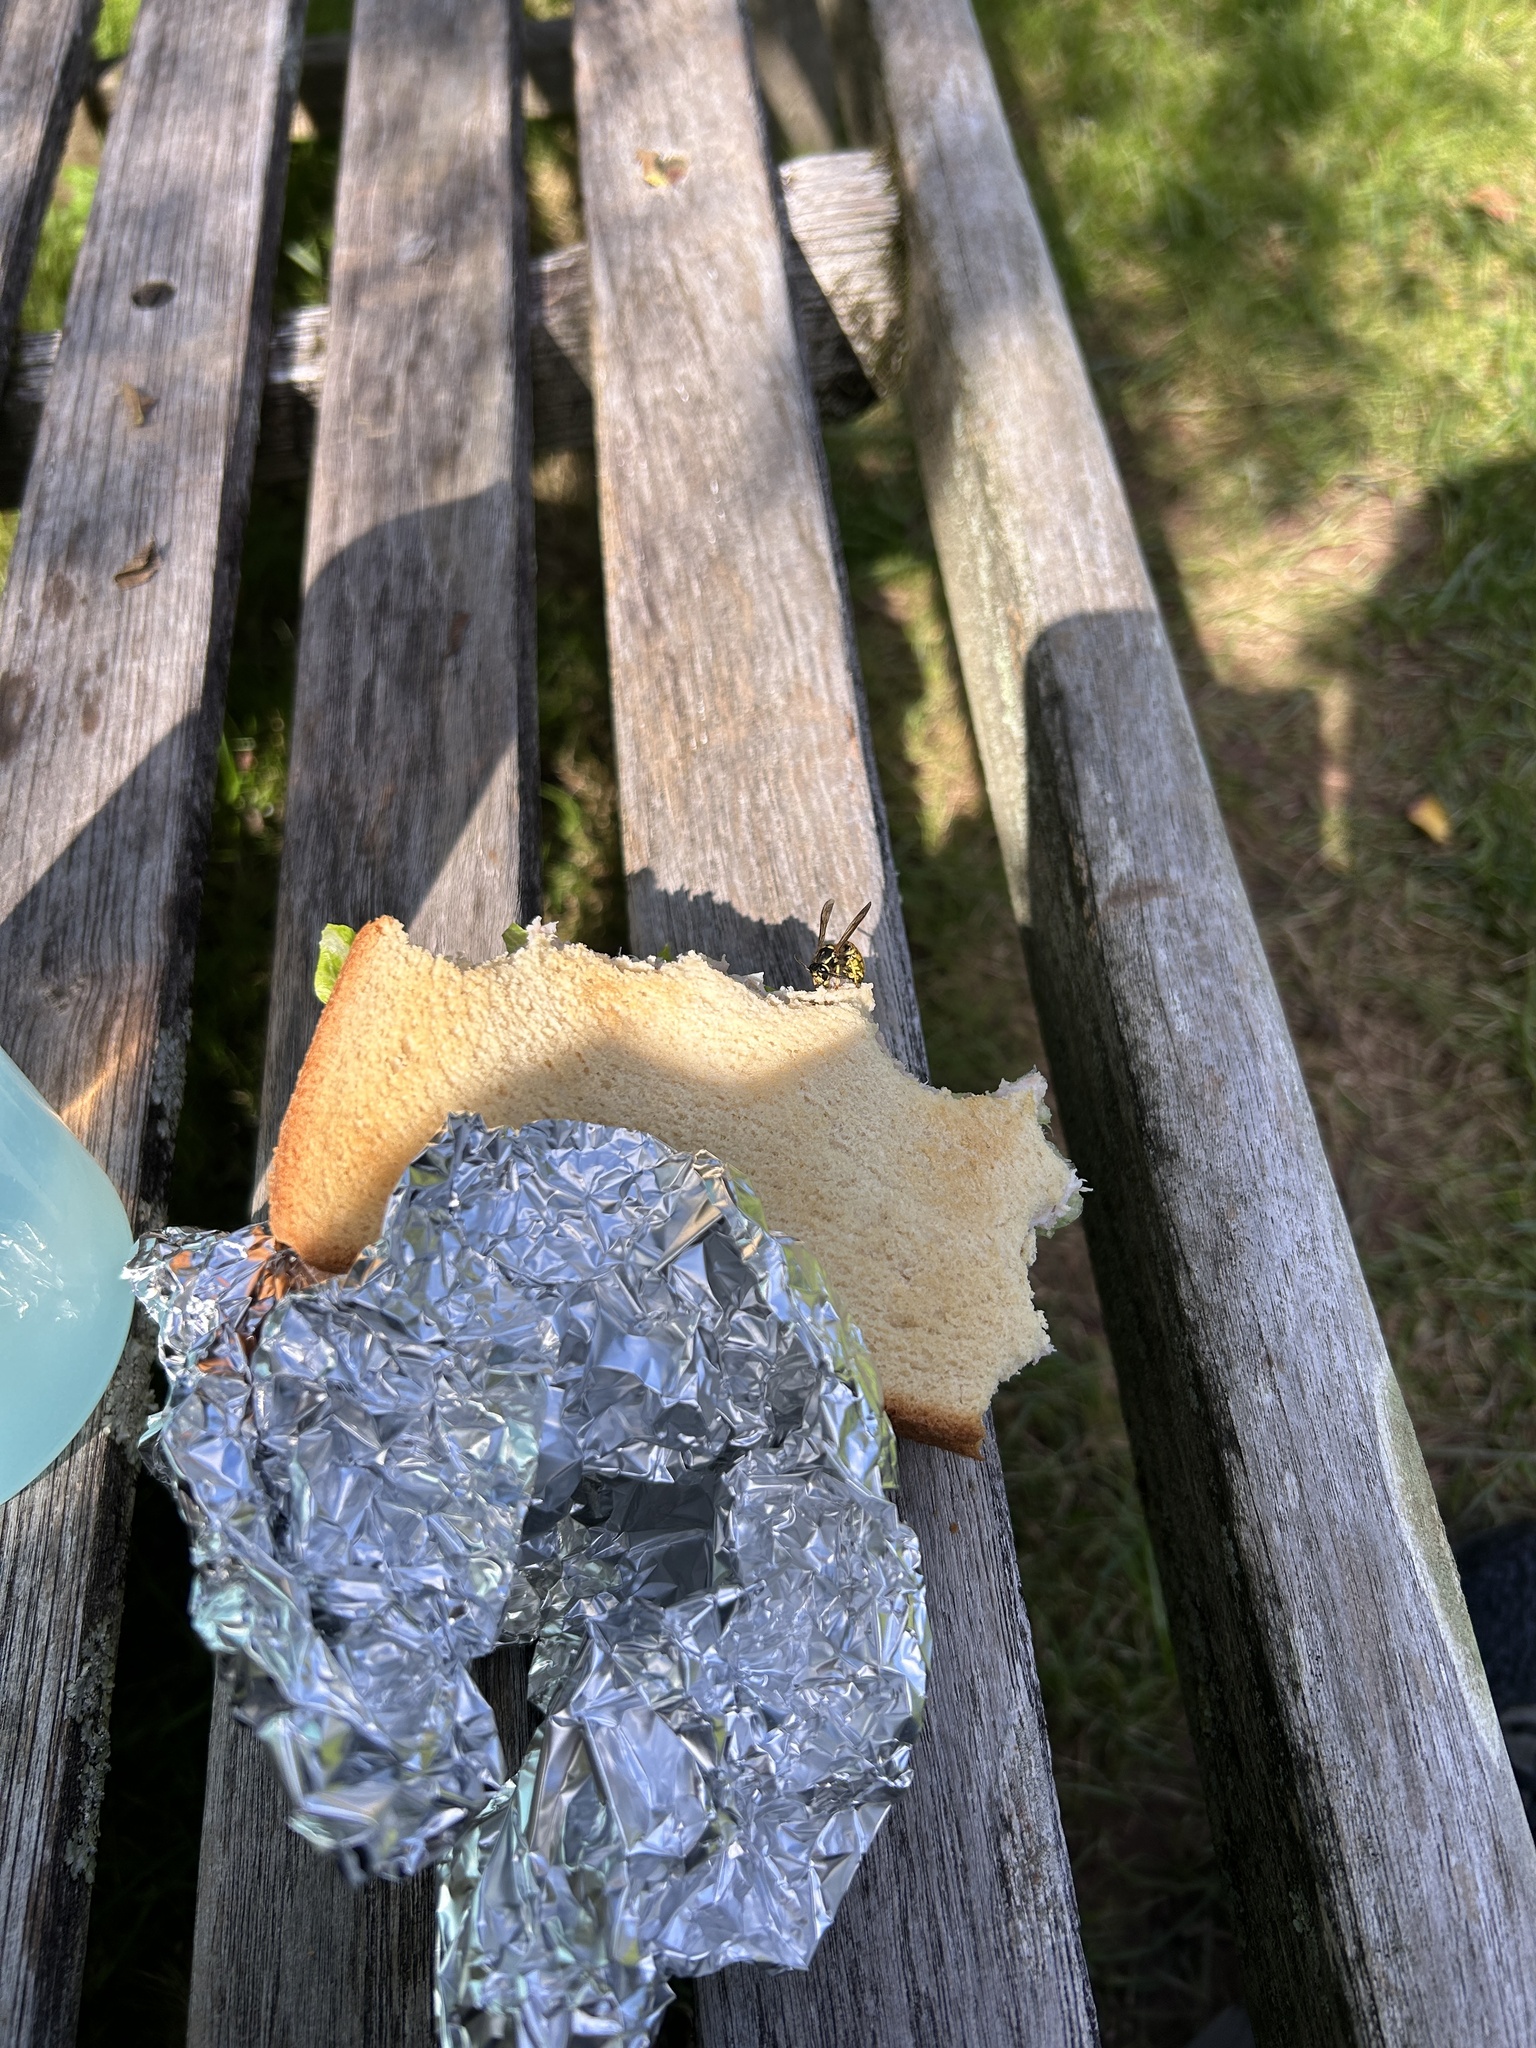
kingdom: Animalia
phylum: Arthropoda
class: Insecta
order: Hymenoptera
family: Vespidae
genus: Vespula
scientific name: Vespula
